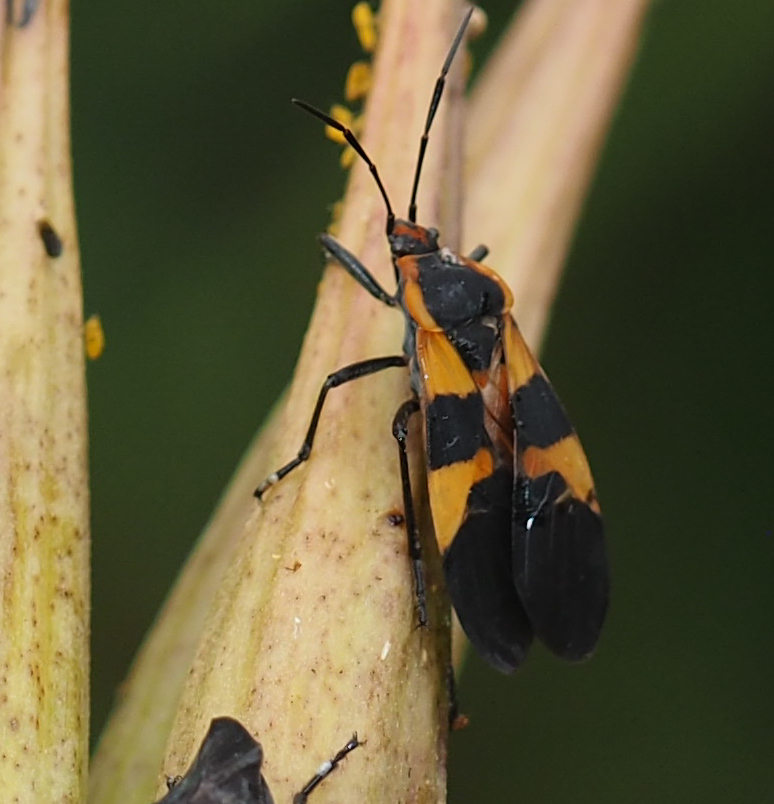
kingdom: Animalia
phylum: Arthropoda
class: Insecta
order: Hemiptera
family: Lygaeidae
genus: Oncopeltus
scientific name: Oncopeltus fasciatus
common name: Large milkweed bug
